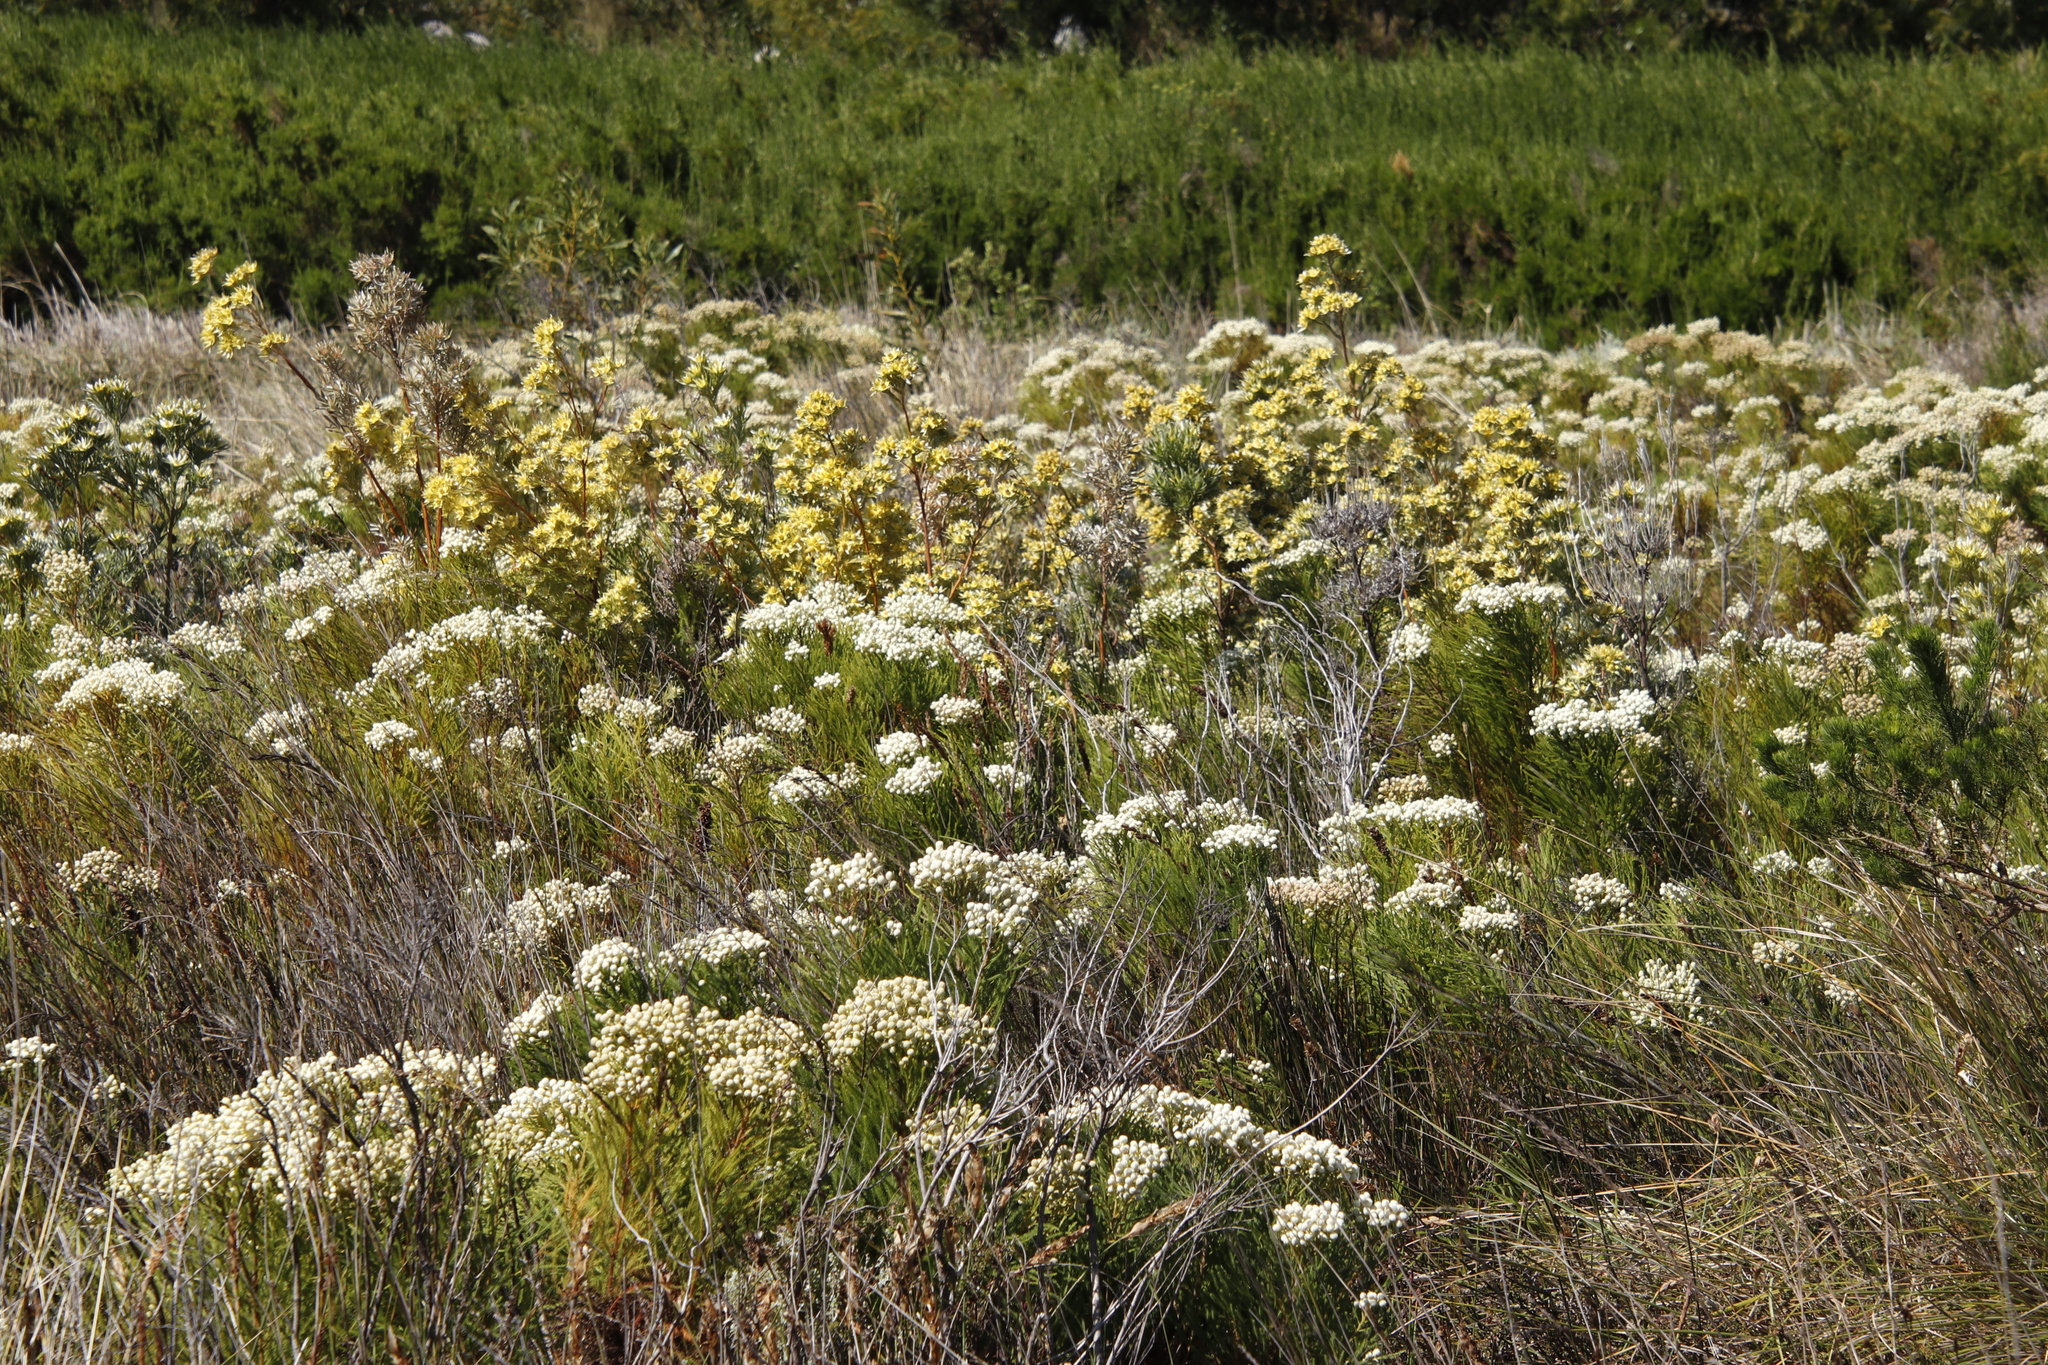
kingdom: Plantae
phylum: Tracheophyta
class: Magnoliopsida
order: Proteales
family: Proteaceae
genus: Leucadendron
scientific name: Leucadendron floridum
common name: Flats conebush
